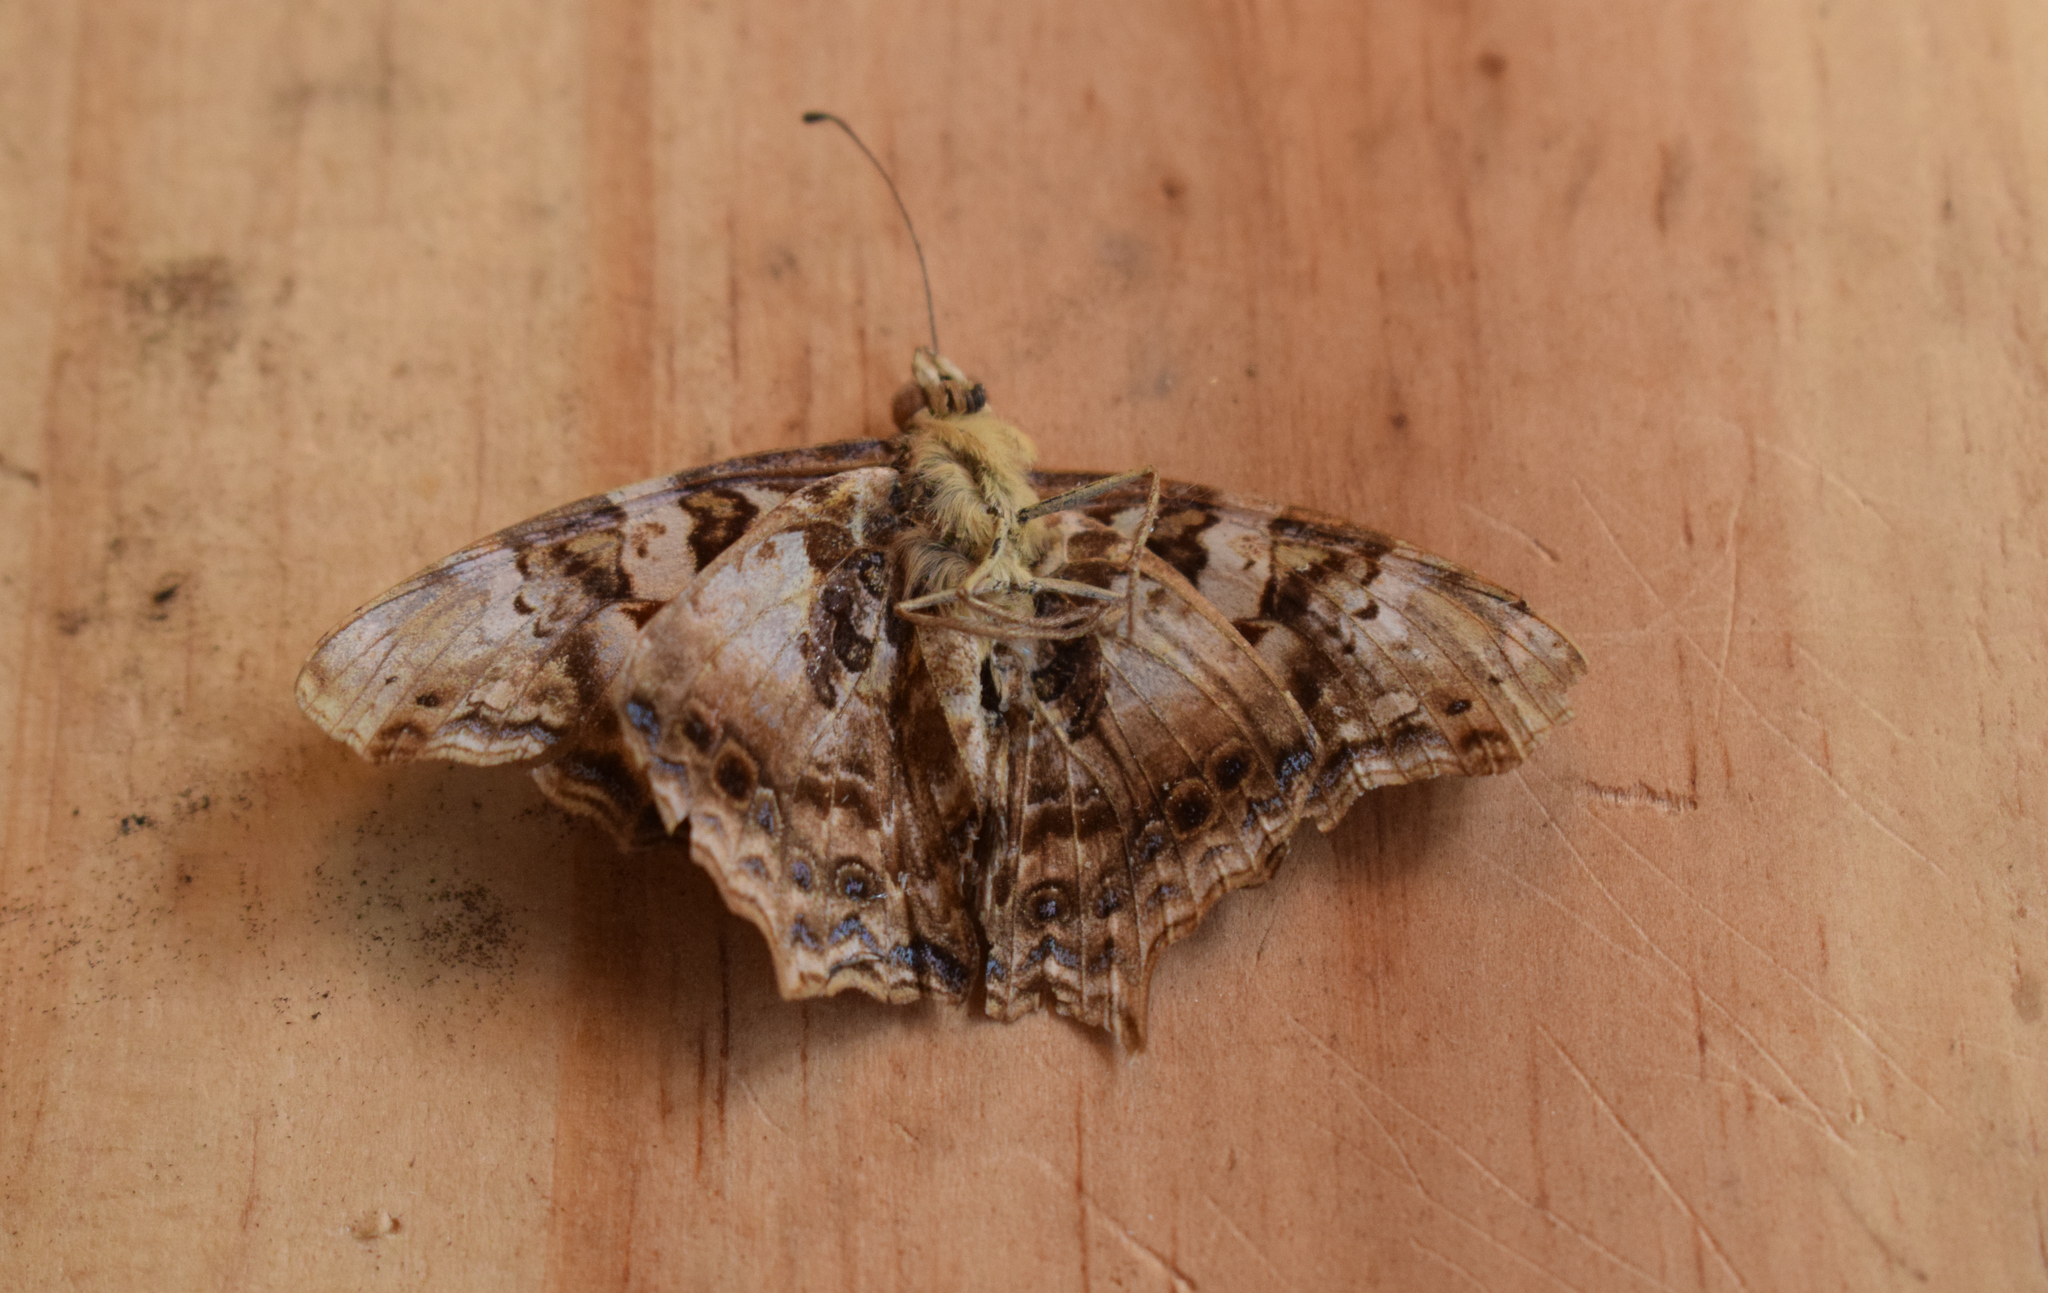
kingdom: Animalia
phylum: Arthropoda
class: Insecta
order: Lepidoptera
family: Nymphalidae
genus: Hypanartia
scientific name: Hypanartia bella
